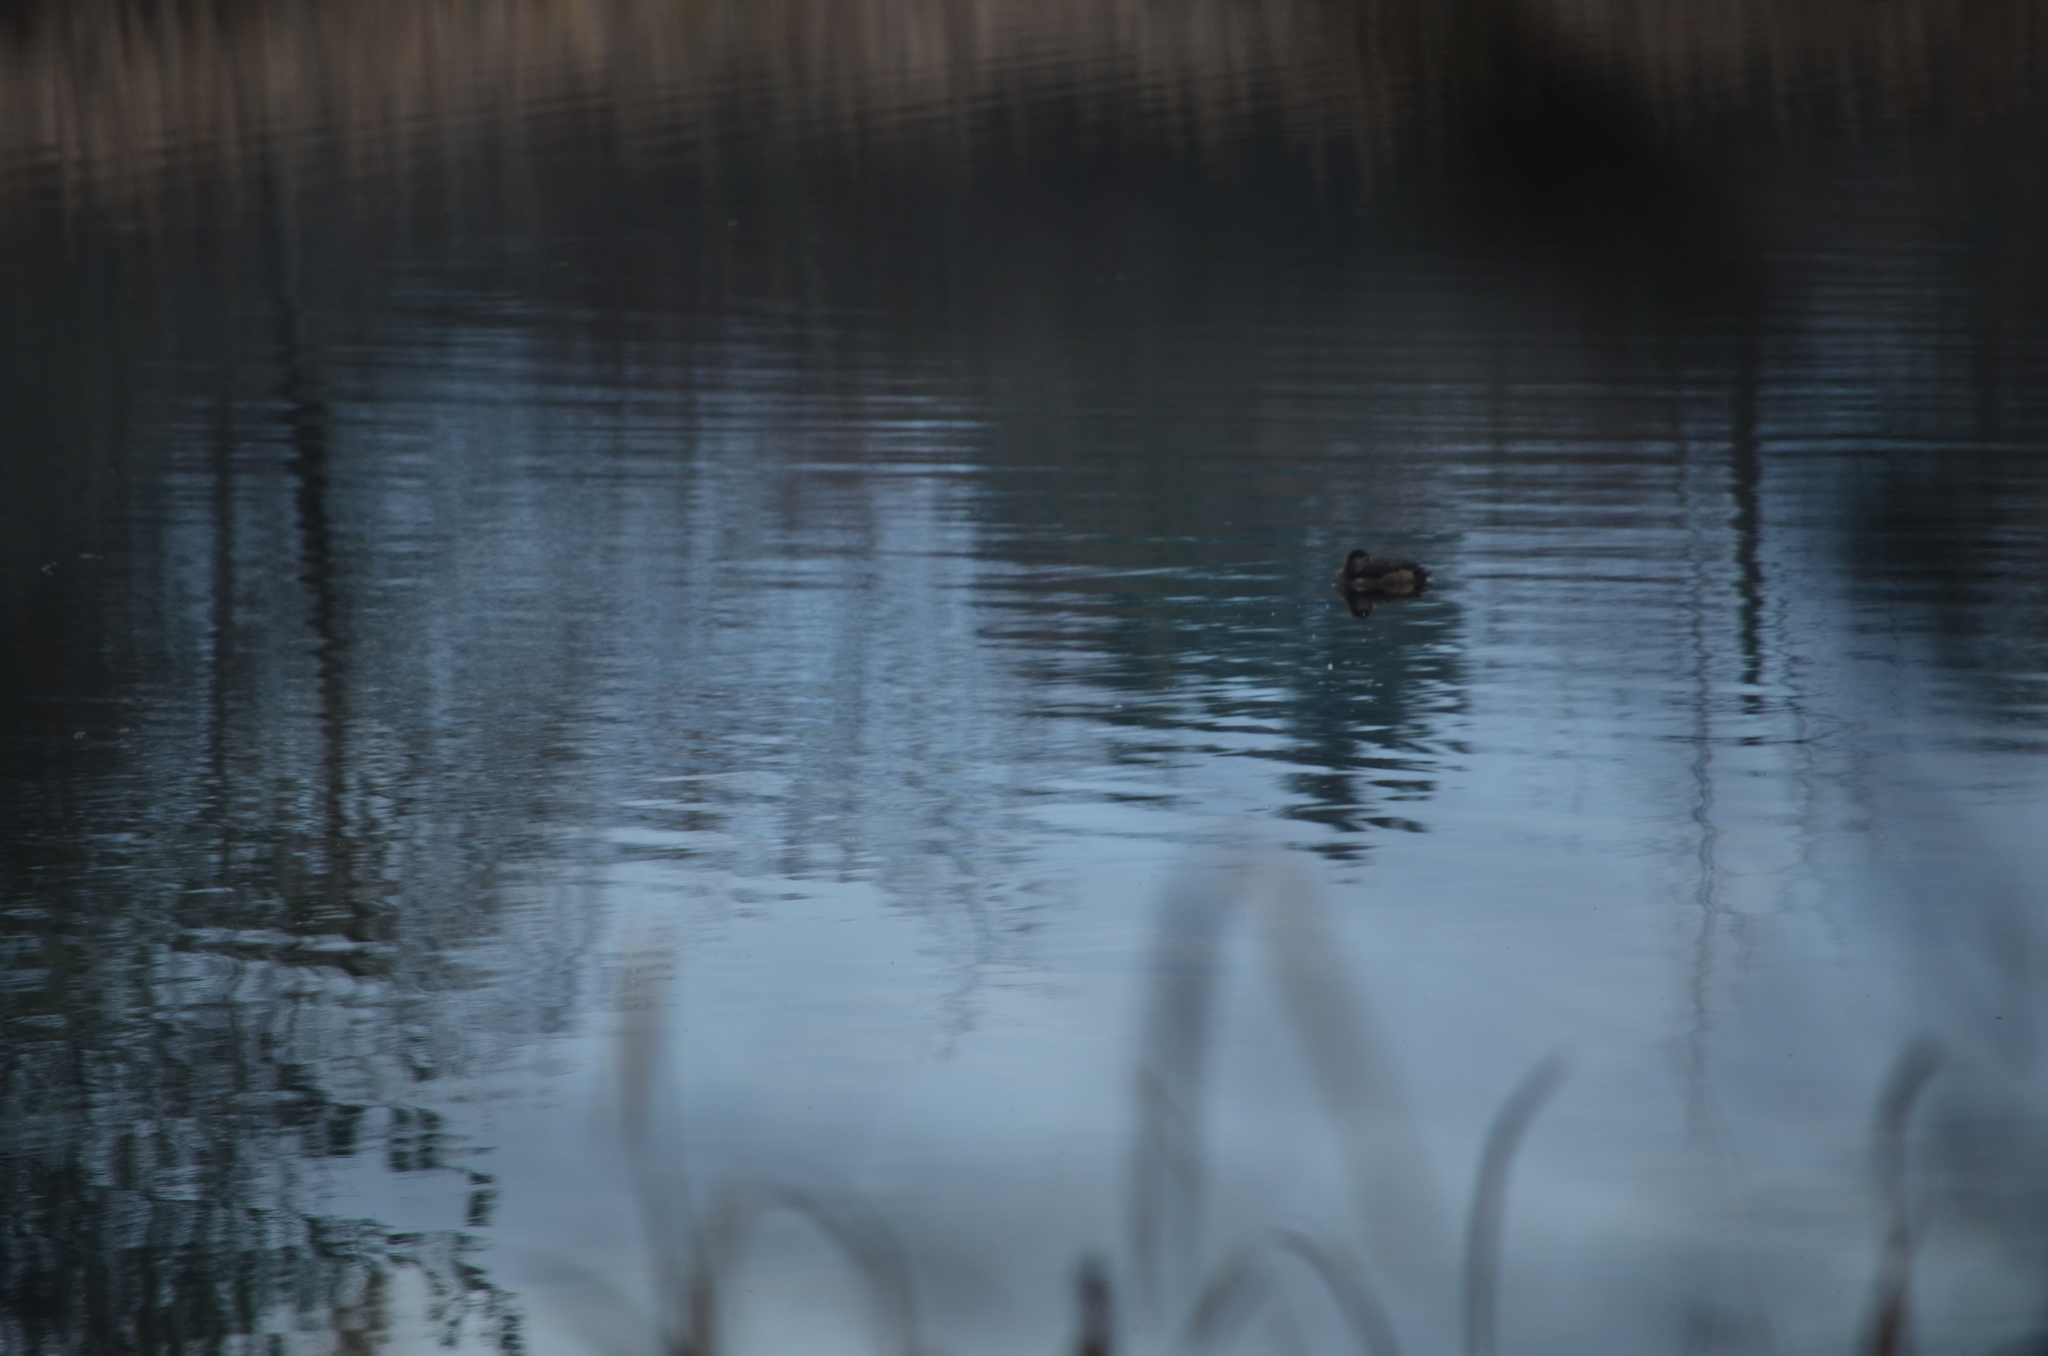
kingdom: Animalia
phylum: Chordata
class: Aves
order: Anseriformes
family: Anatidae
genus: Aythya
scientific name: Aythya collaris
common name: Ring-necked duck
